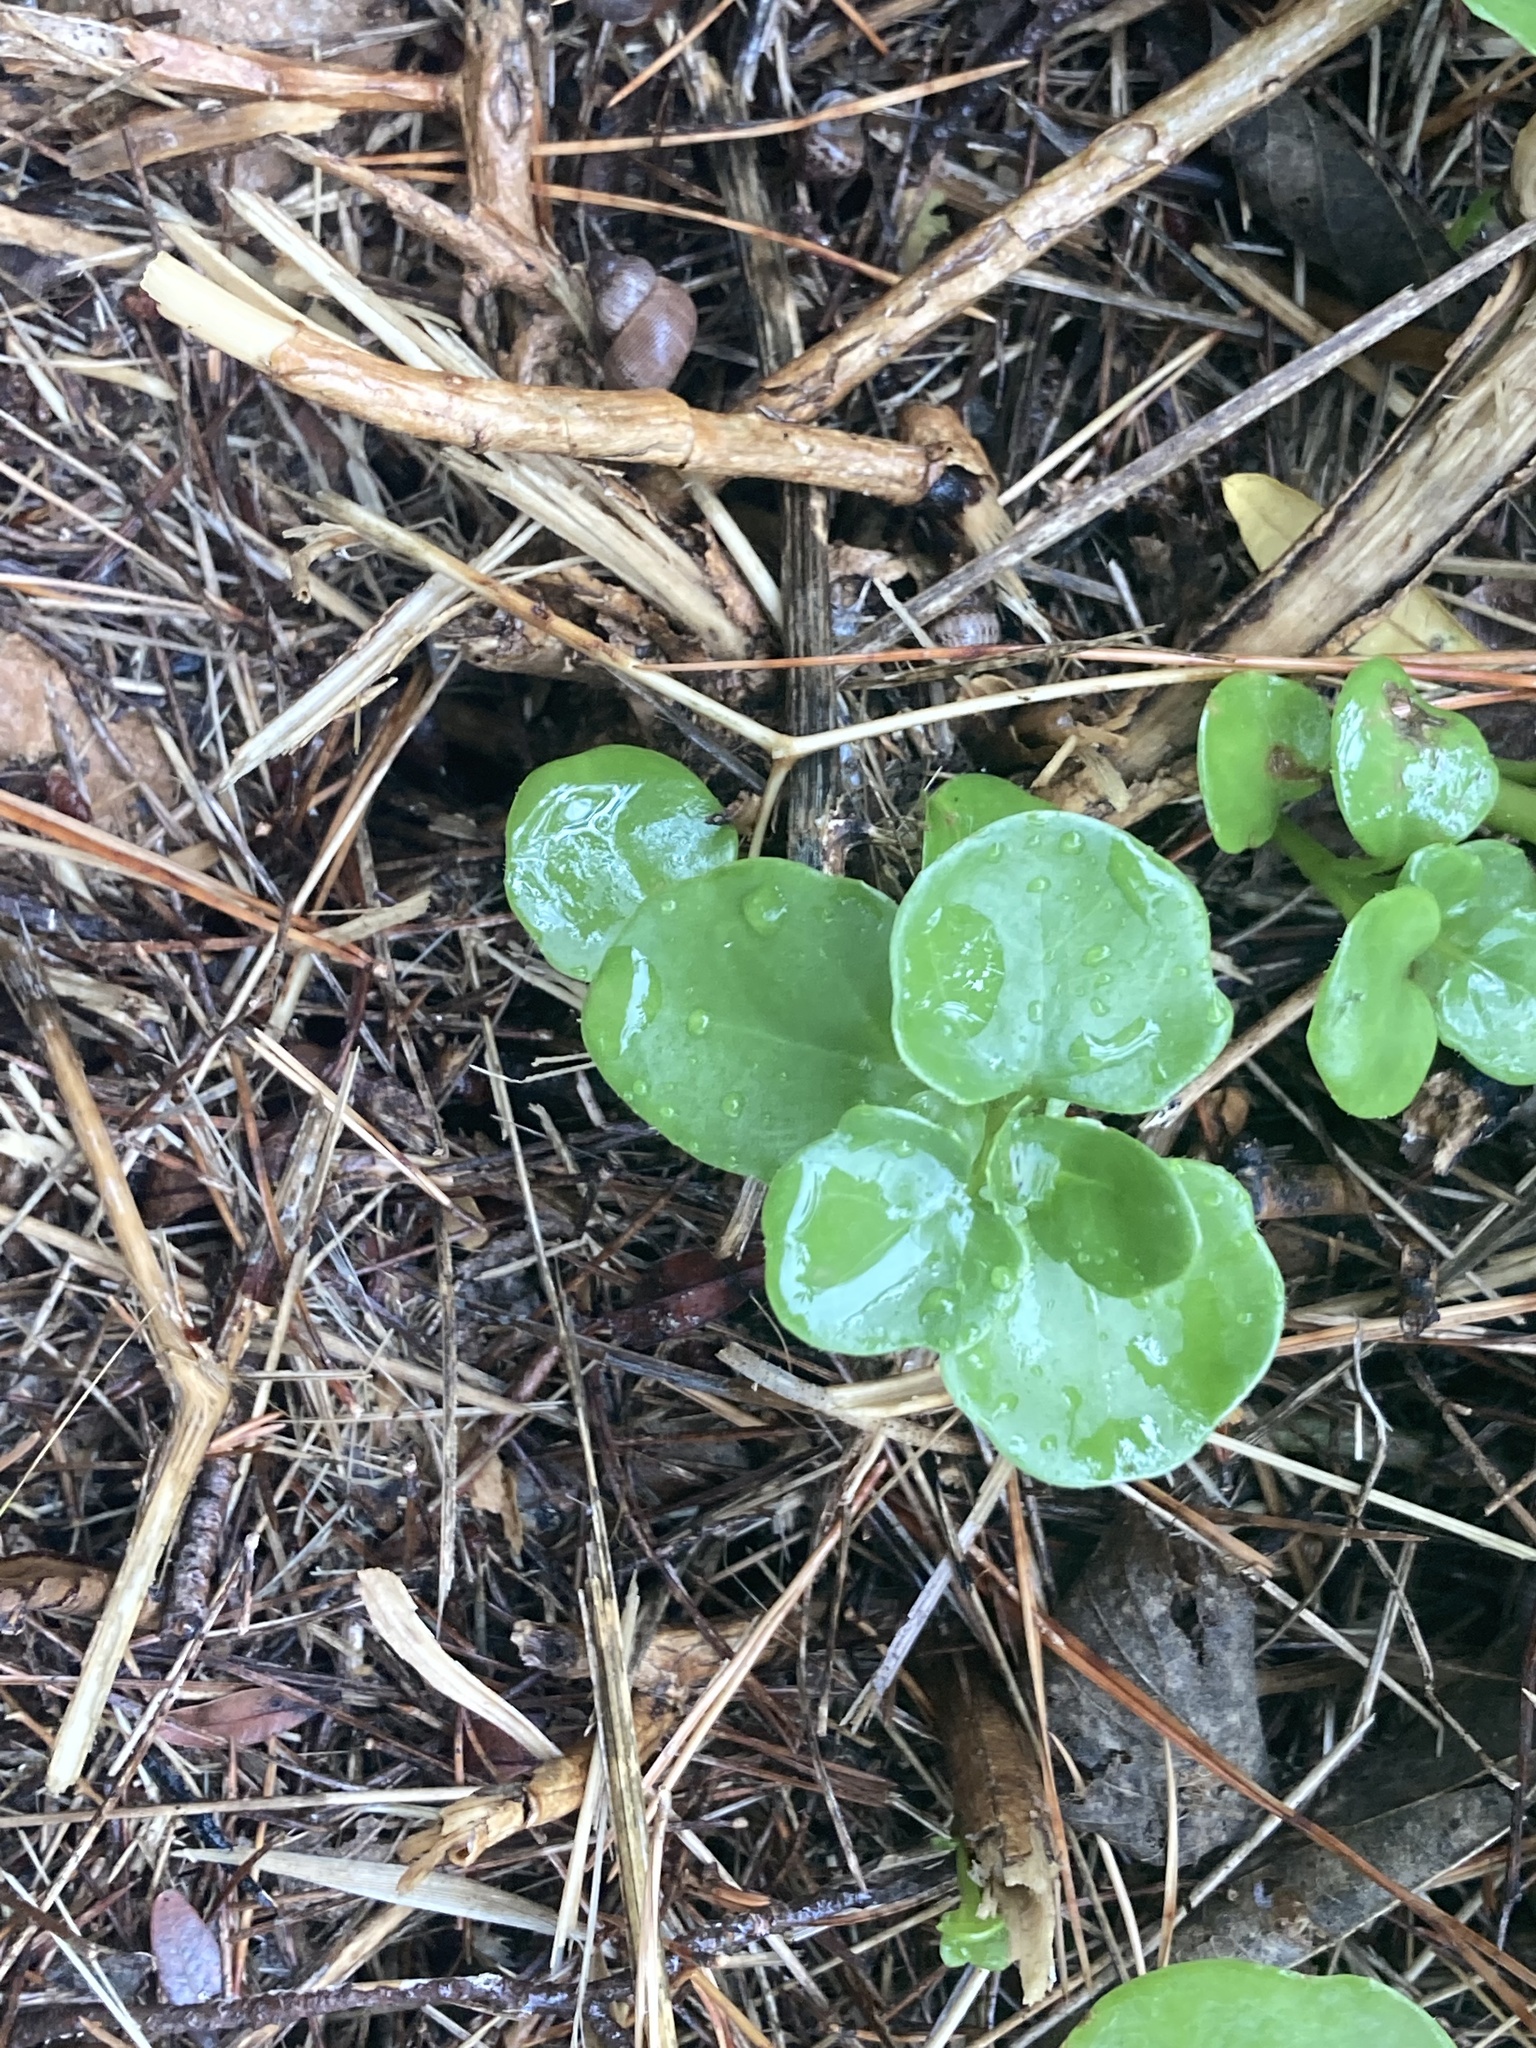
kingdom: Plantae
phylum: Tracheophyta
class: Magnoliopsida
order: Asterales
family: Asteraceae
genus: Senecio
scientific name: Senecio angulatus
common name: Climbing groundsel
